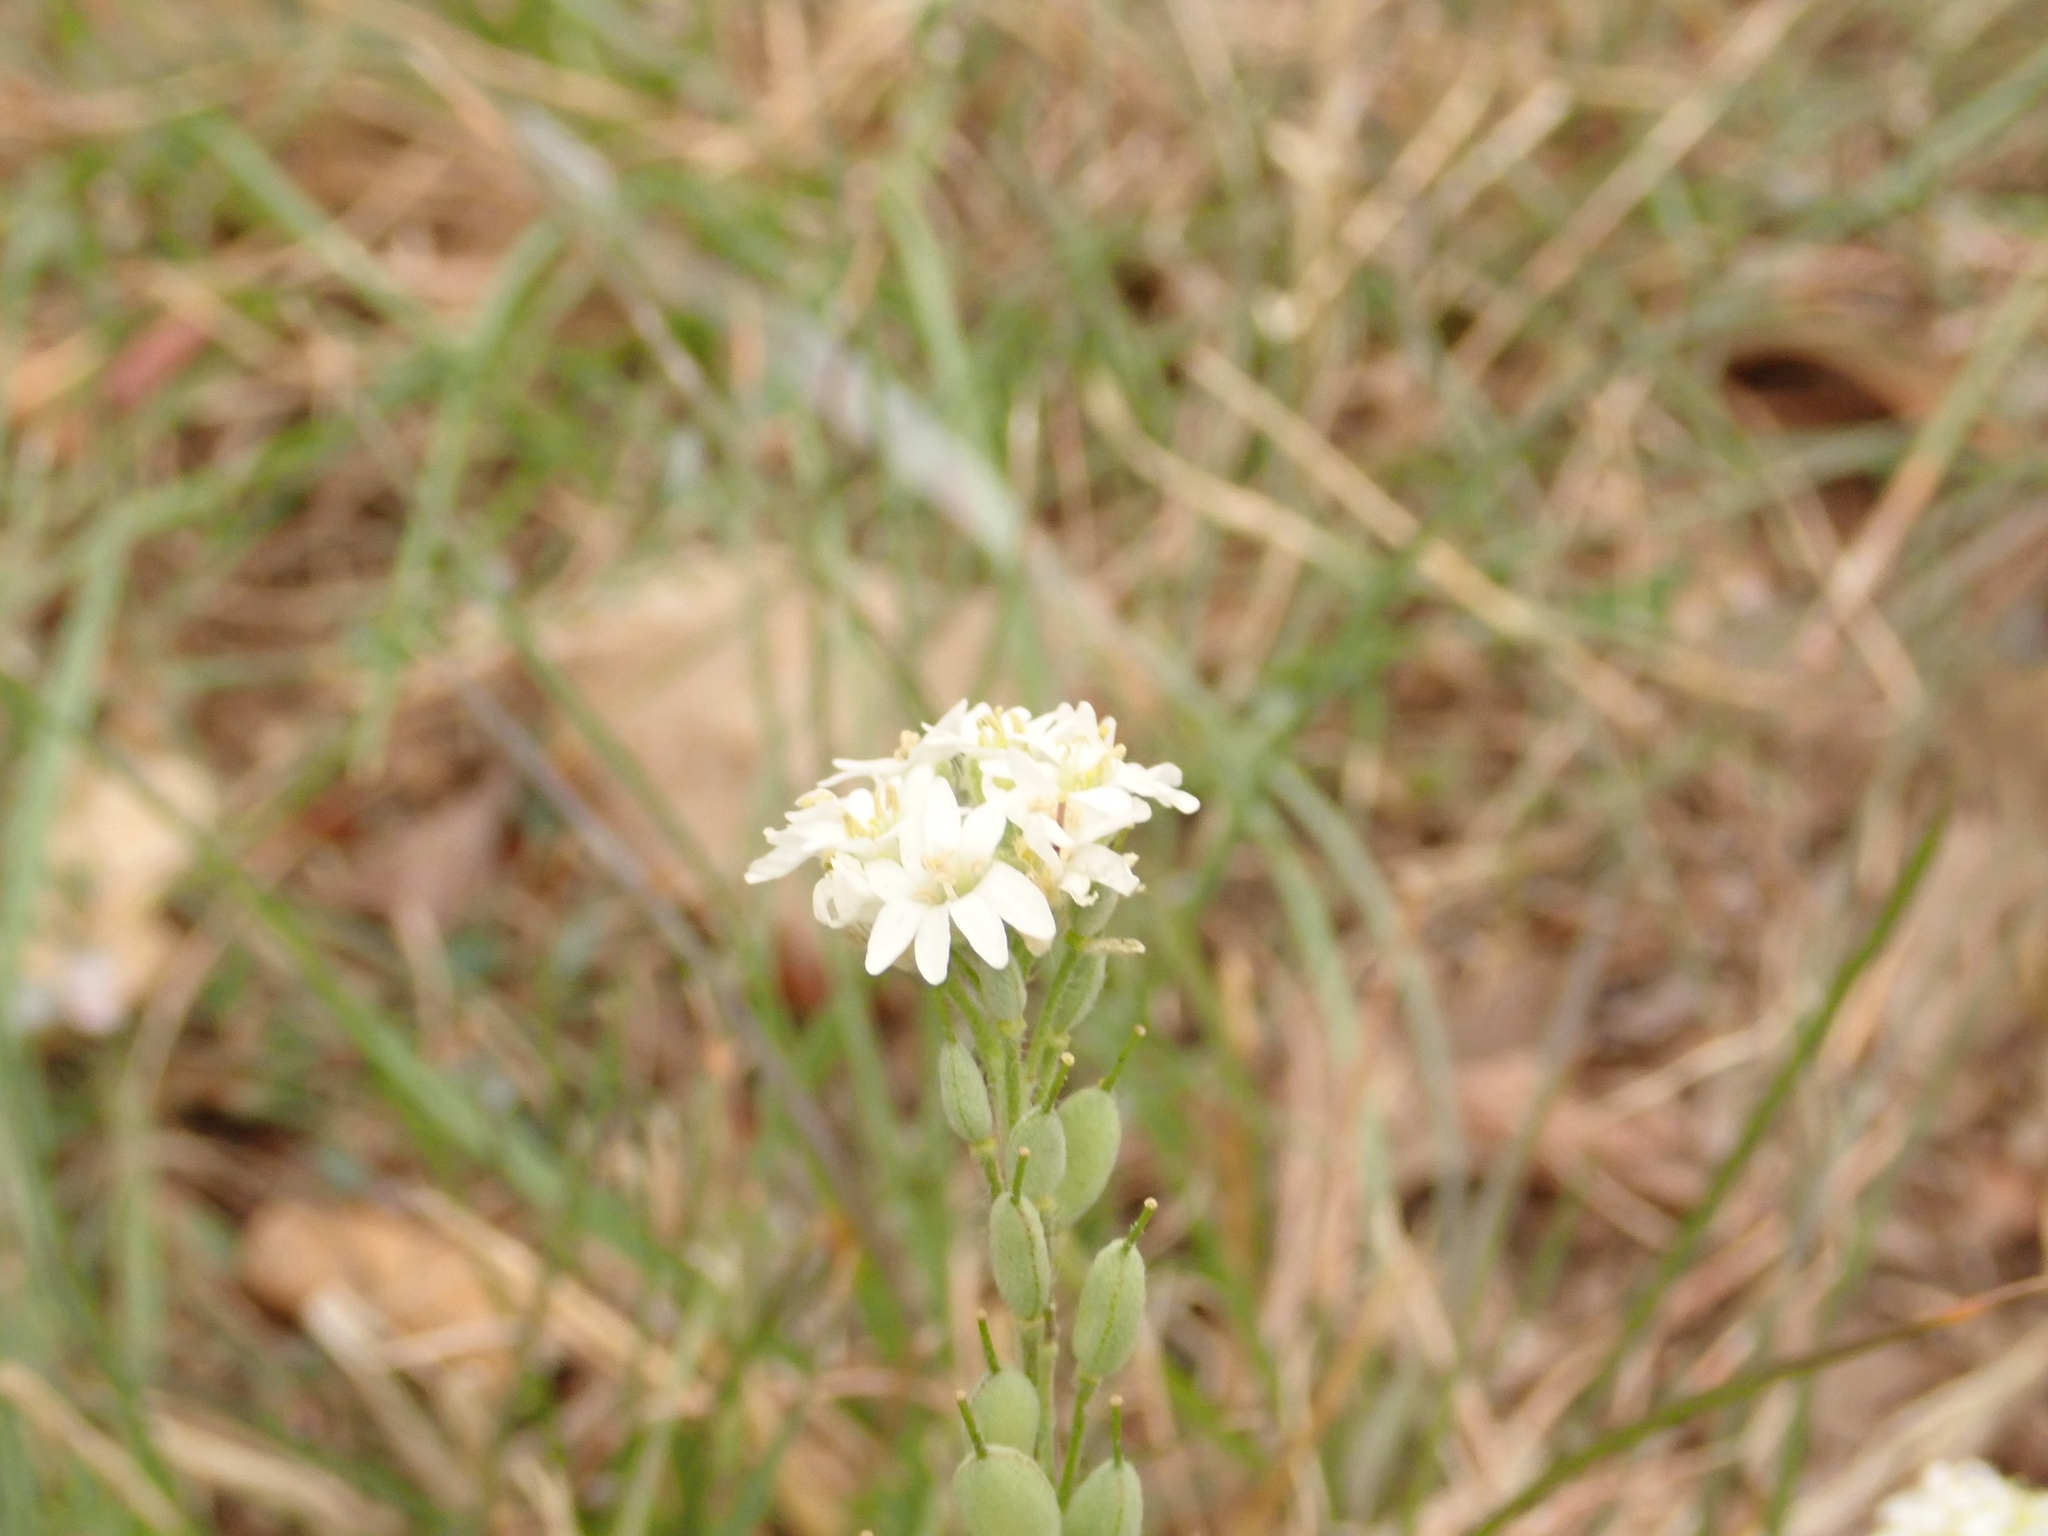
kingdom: Plantae
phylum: Tracheophyta
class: Magnoliopsida
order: Brassicales
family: Brassicaceae
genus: Berteroa
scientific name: Berteroa incana
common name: Hoary alison
